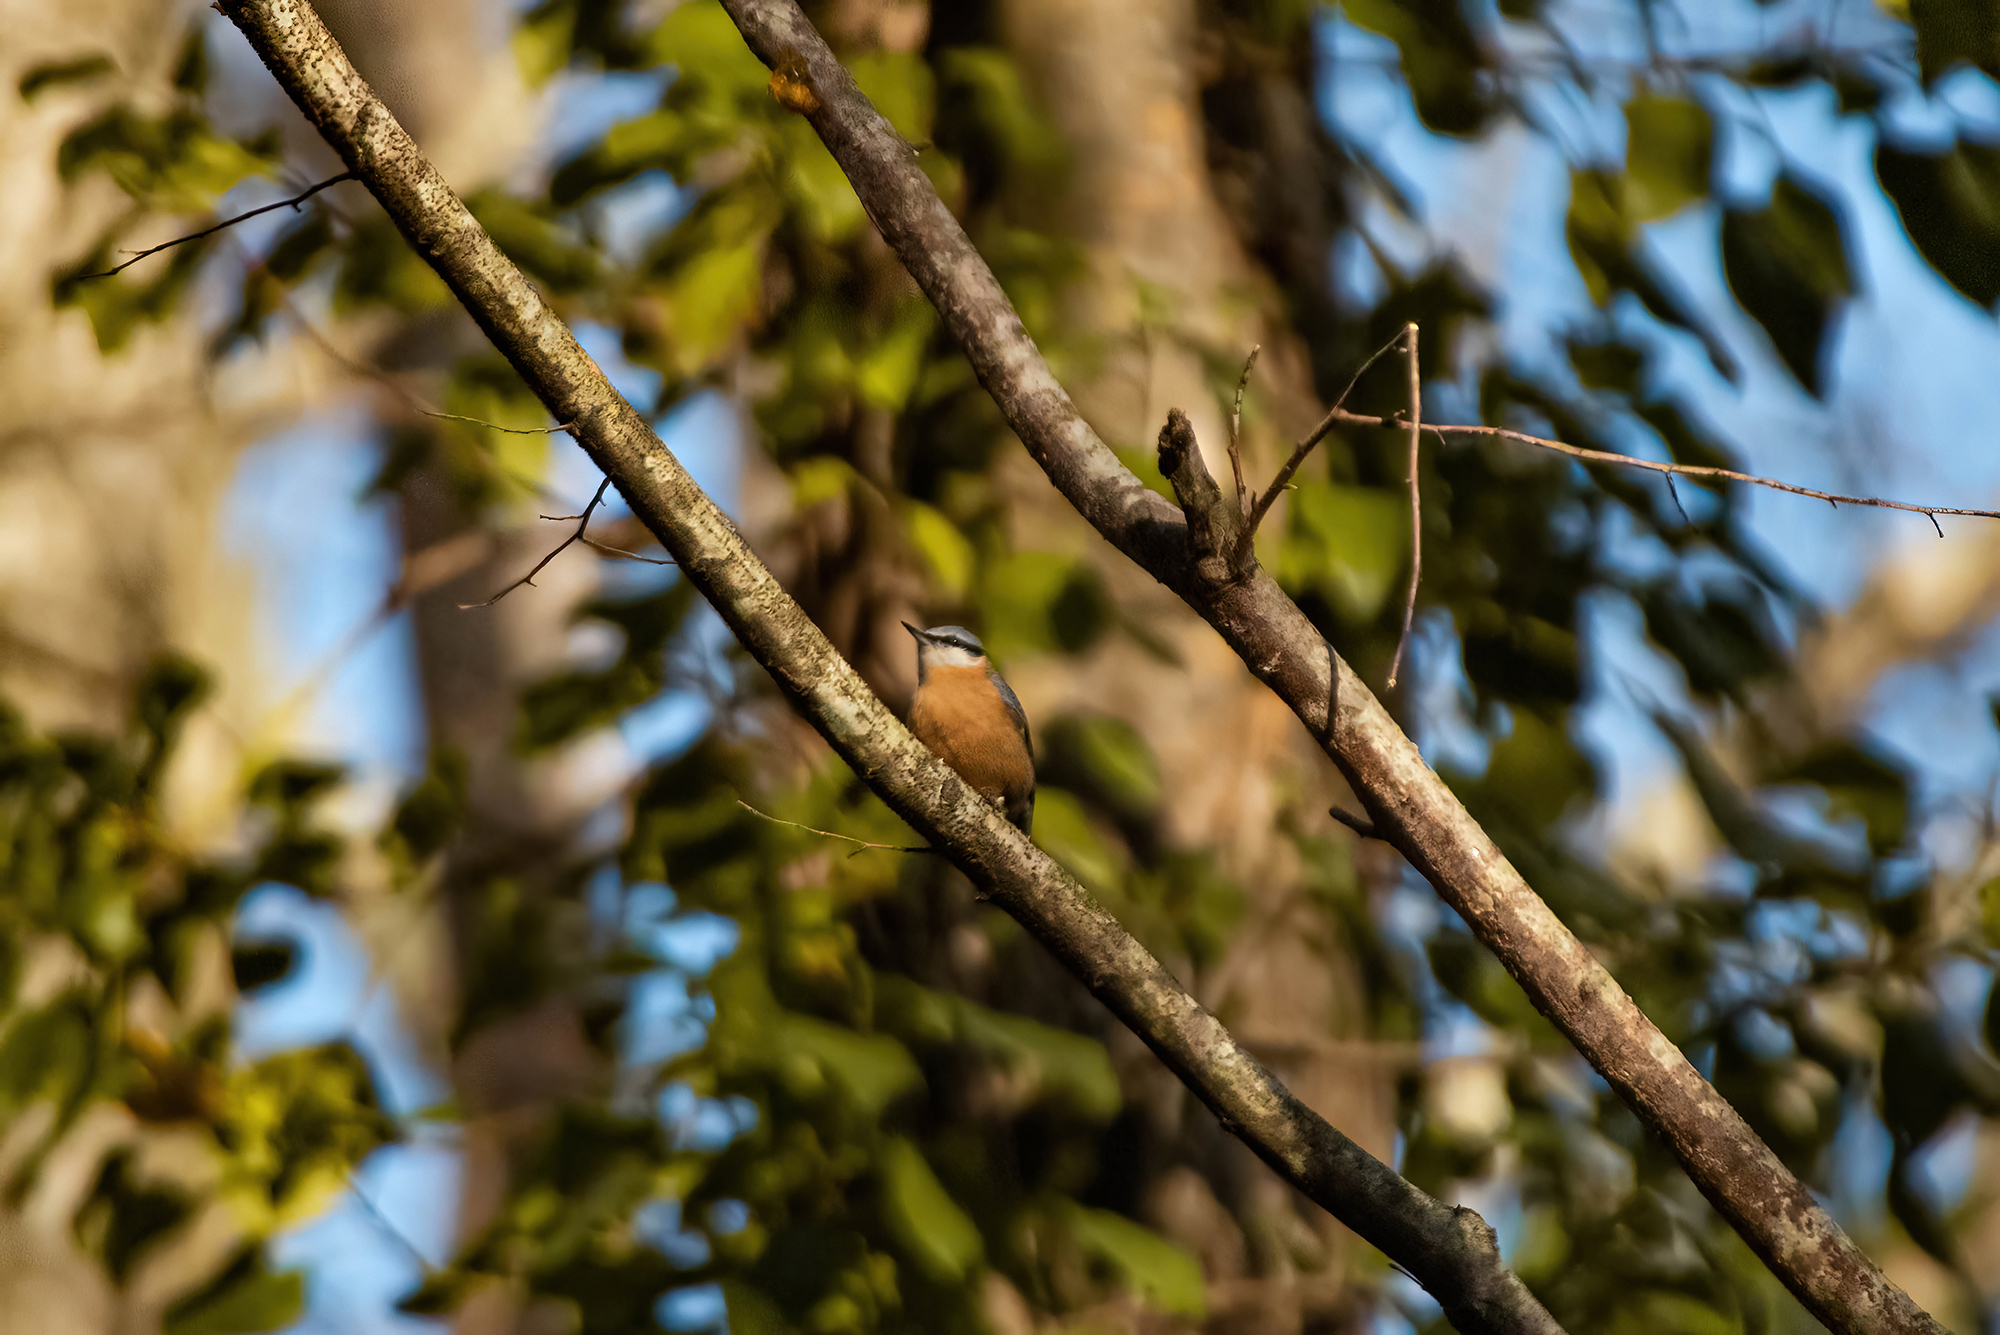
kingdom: Animalia
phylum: Chordata
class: Aves
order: Passeriformes
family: Sittidae
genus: Sitta
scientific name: Sitta europaea
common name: Eurasian nuthatch
